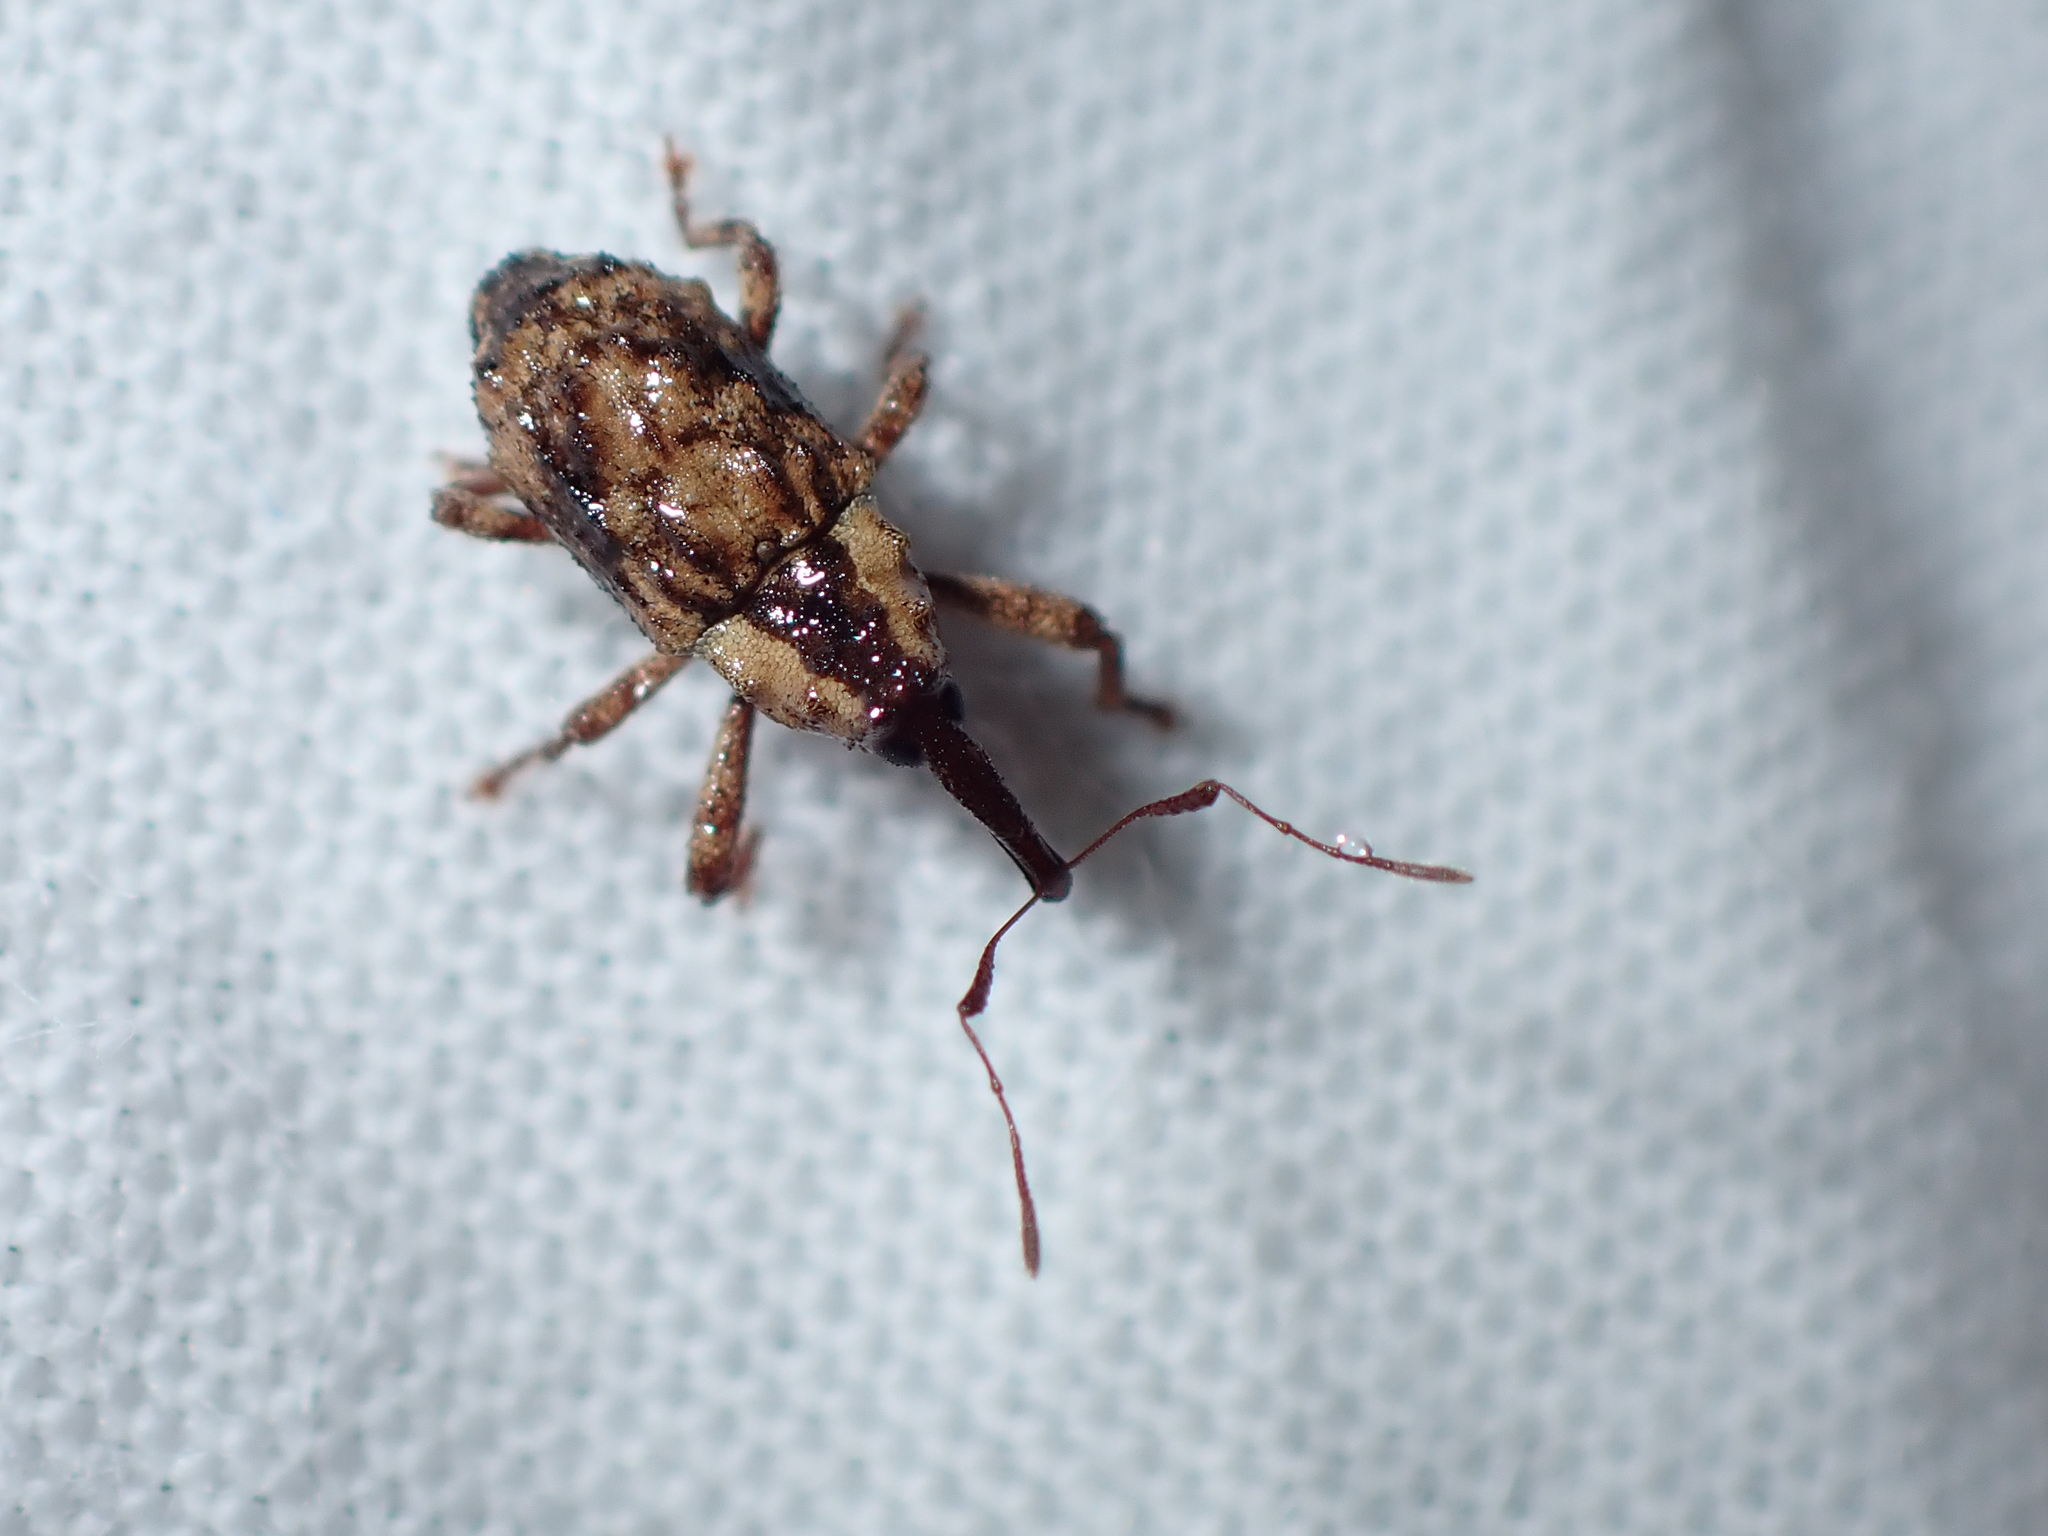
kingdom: Animalia
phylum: Arthropoda
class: Insecta
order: Coleoptera
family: Curculionidae
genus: Mecistostylus
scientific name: Mecistostylus douei
